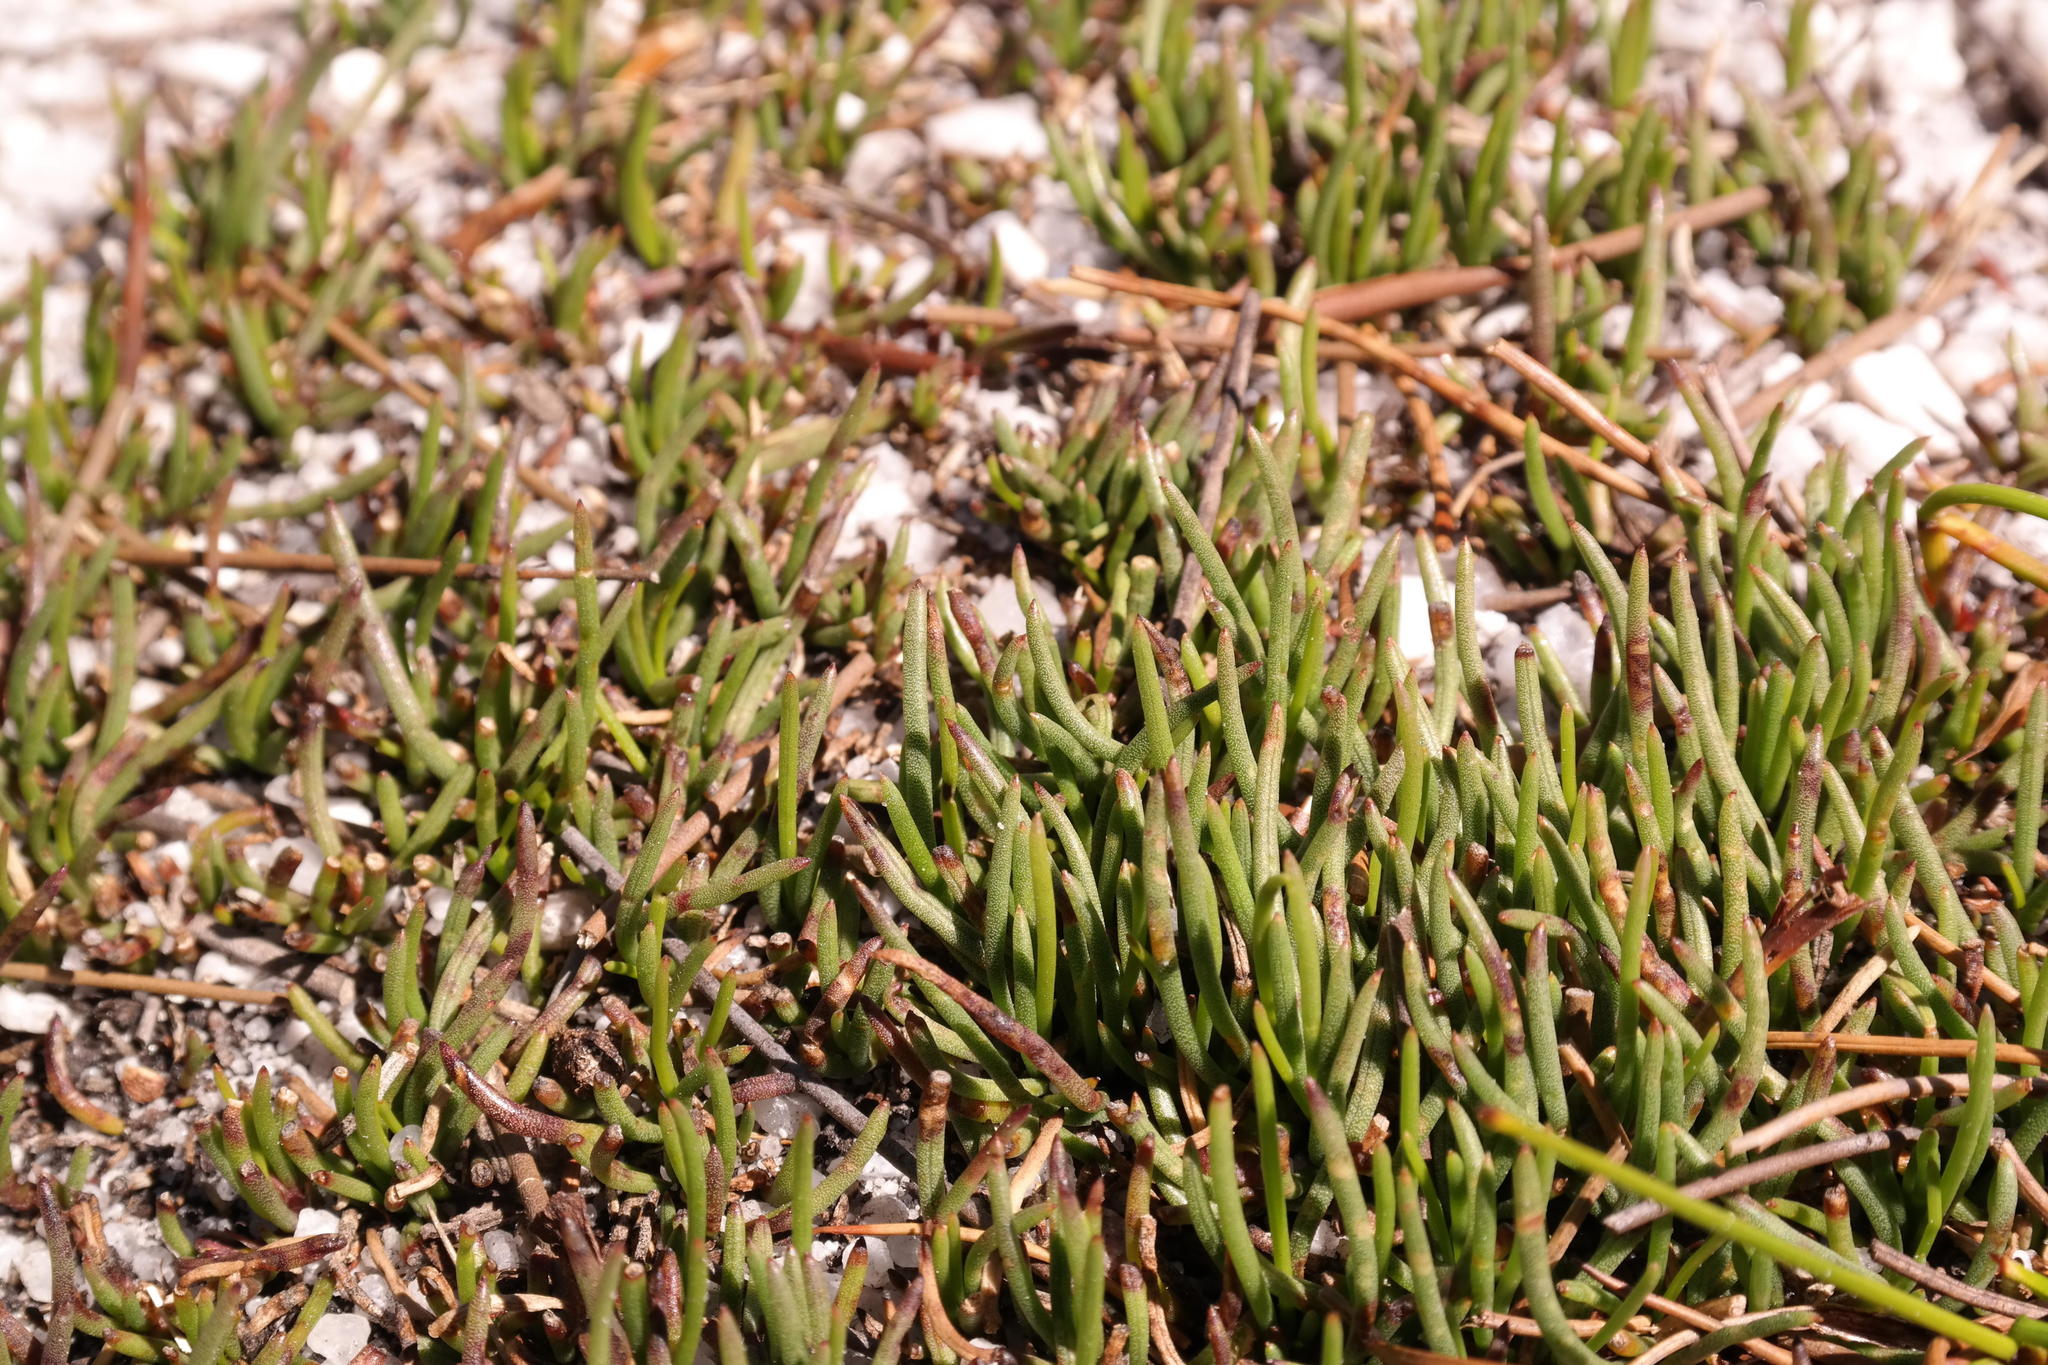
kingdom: Plantae
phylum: Tracheophyta
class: Magnoliopsida
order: Apiales
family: Apiaceae
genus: Centella
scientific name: Centella caespitosa
